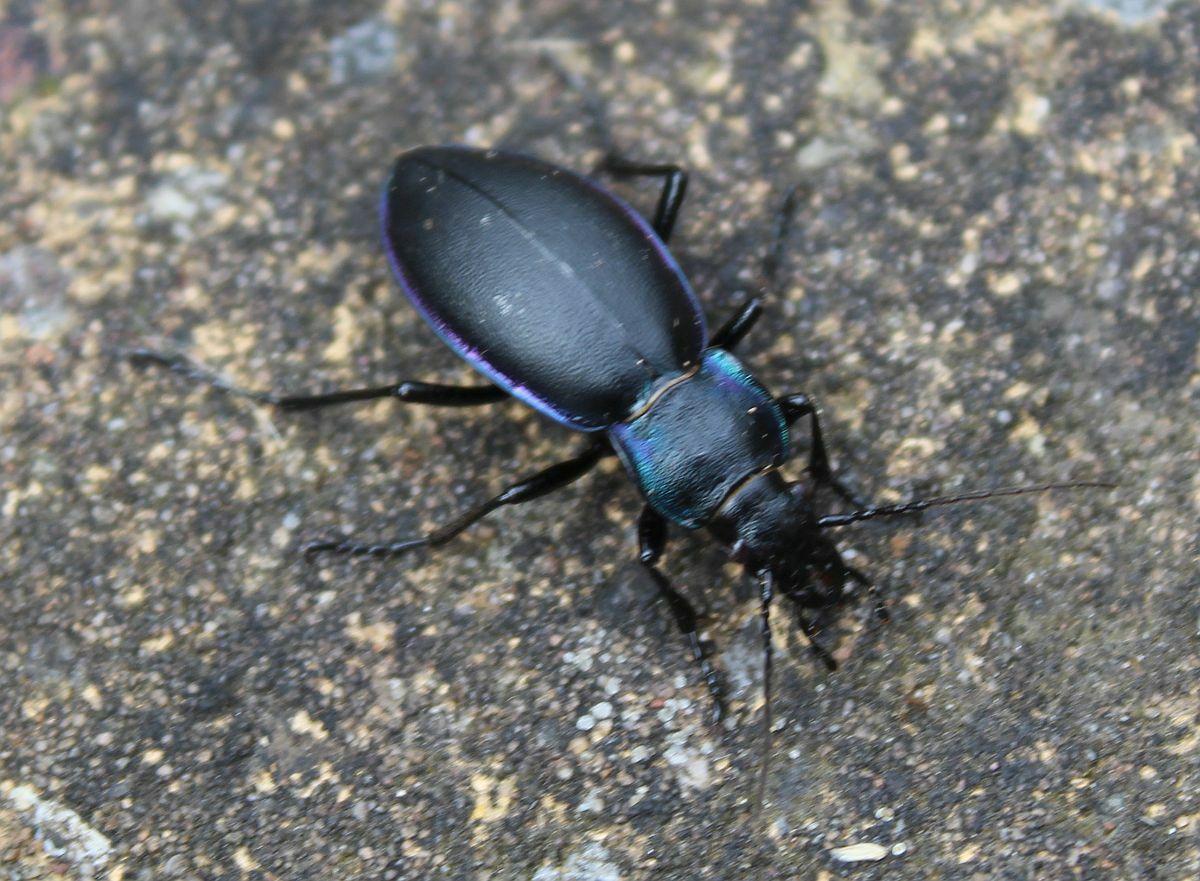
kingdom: Animalia
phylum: Arthropoda
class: Insecta
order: Coleoptera
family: Carabidae
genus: Carabus
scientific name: Carabus violaceus
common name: Violet ground beetle
